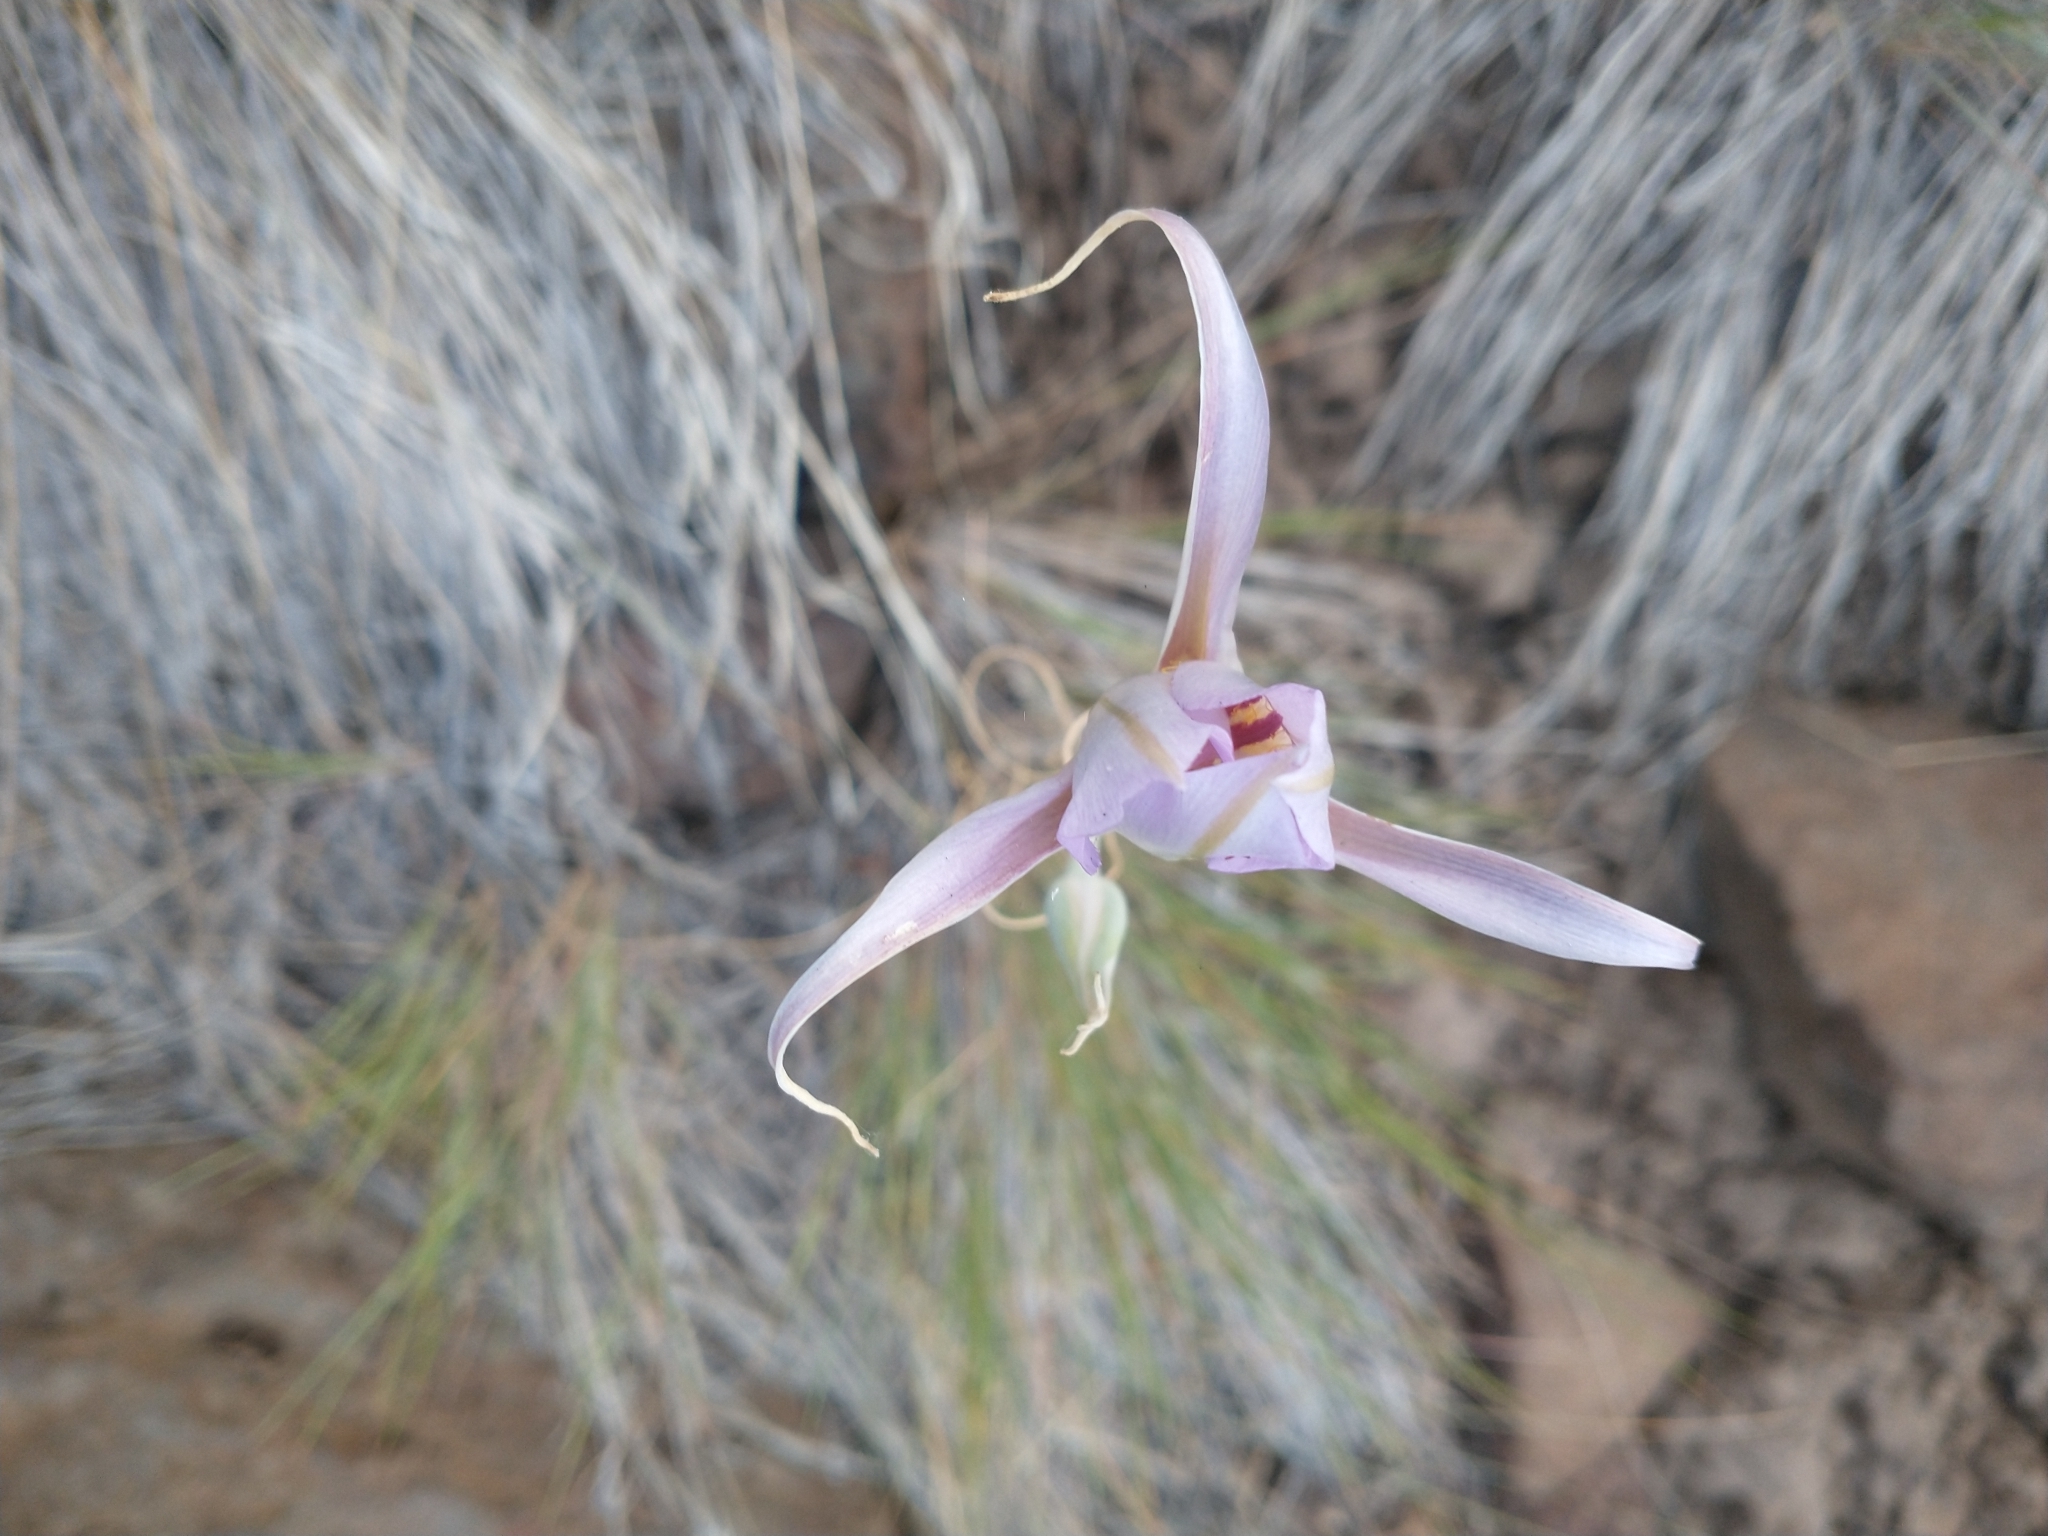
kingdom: Plantae
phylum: Tracheophyta
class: Liliopsida
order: Liliales
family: Liliaceae
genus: Calochortus
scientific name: Calochortus macrocarpus
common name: Green-band mariposa lily
